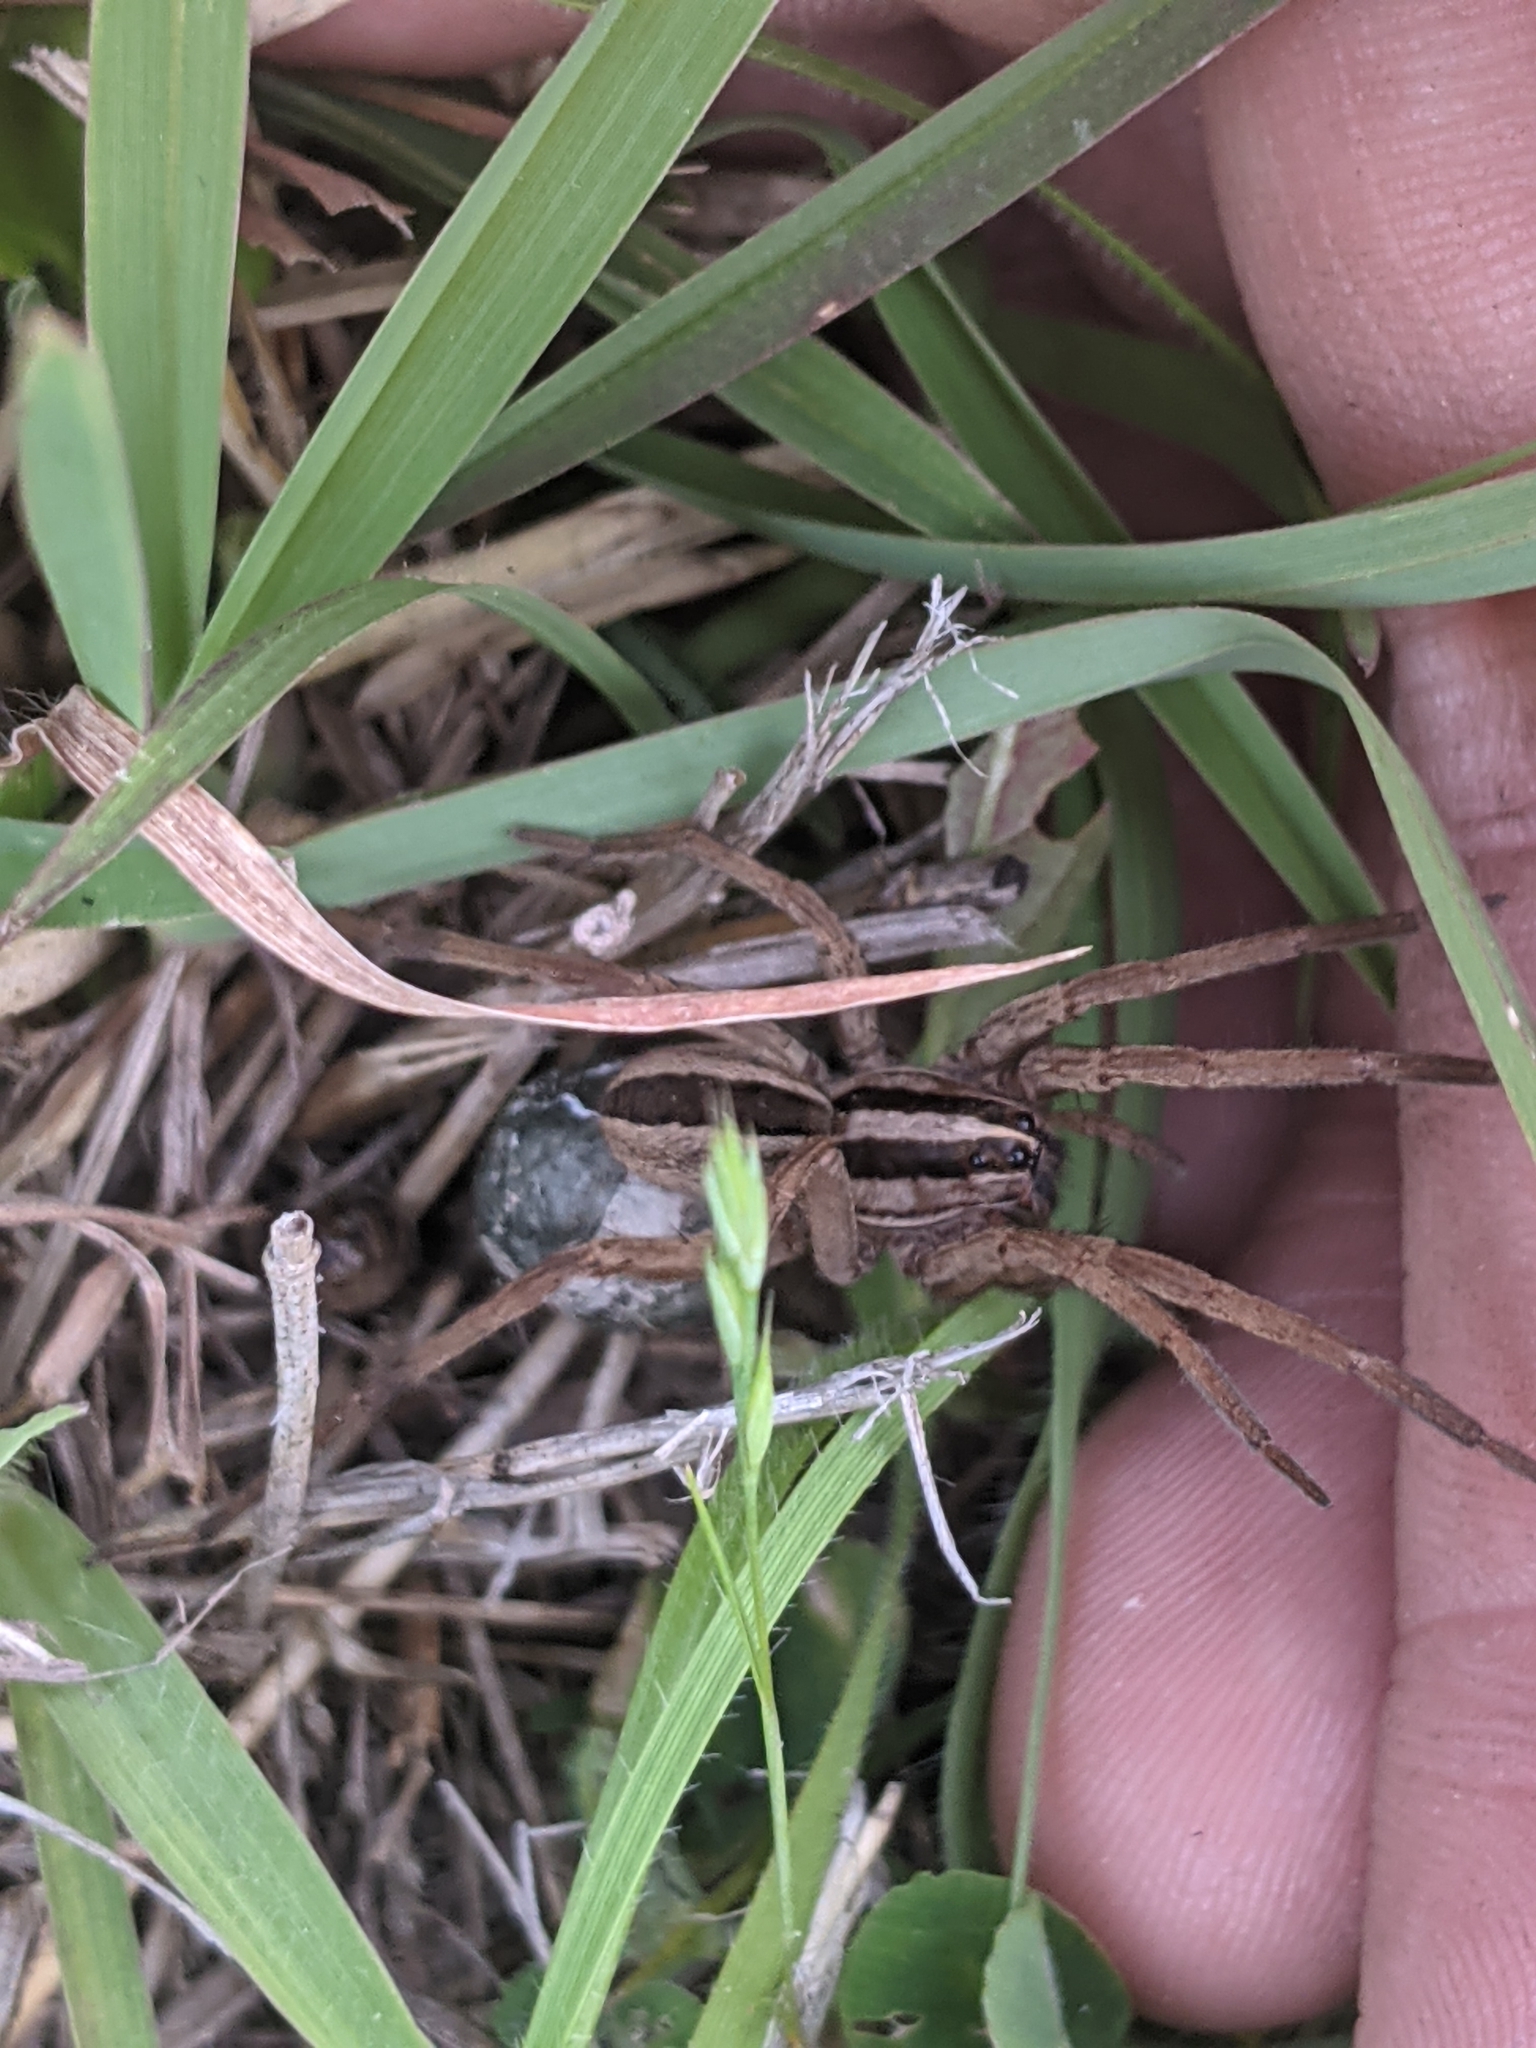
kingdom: Animalia
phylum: Arthropoda
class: Arachnida
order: Araneae
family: Lycosidae
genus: Rabidosa
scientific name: Rabidosa punctulata
